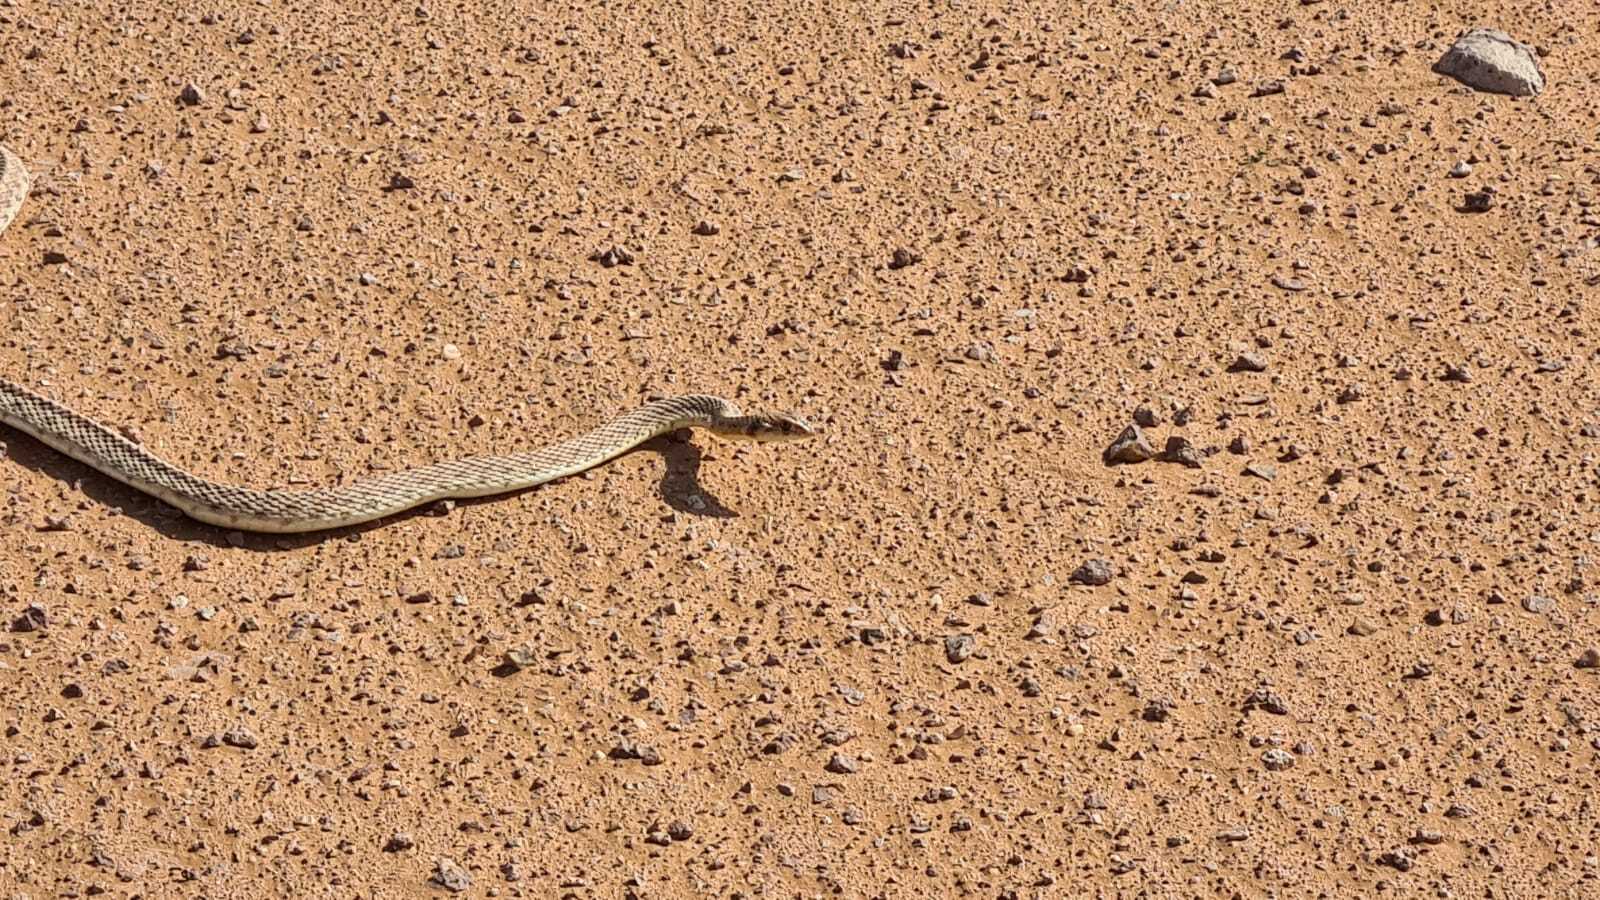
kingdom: Animalia
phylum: Chordata
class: Squamata
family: Psammophiidae
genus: Malpolon
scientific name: Malpolon moilensis
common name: Moila snake
